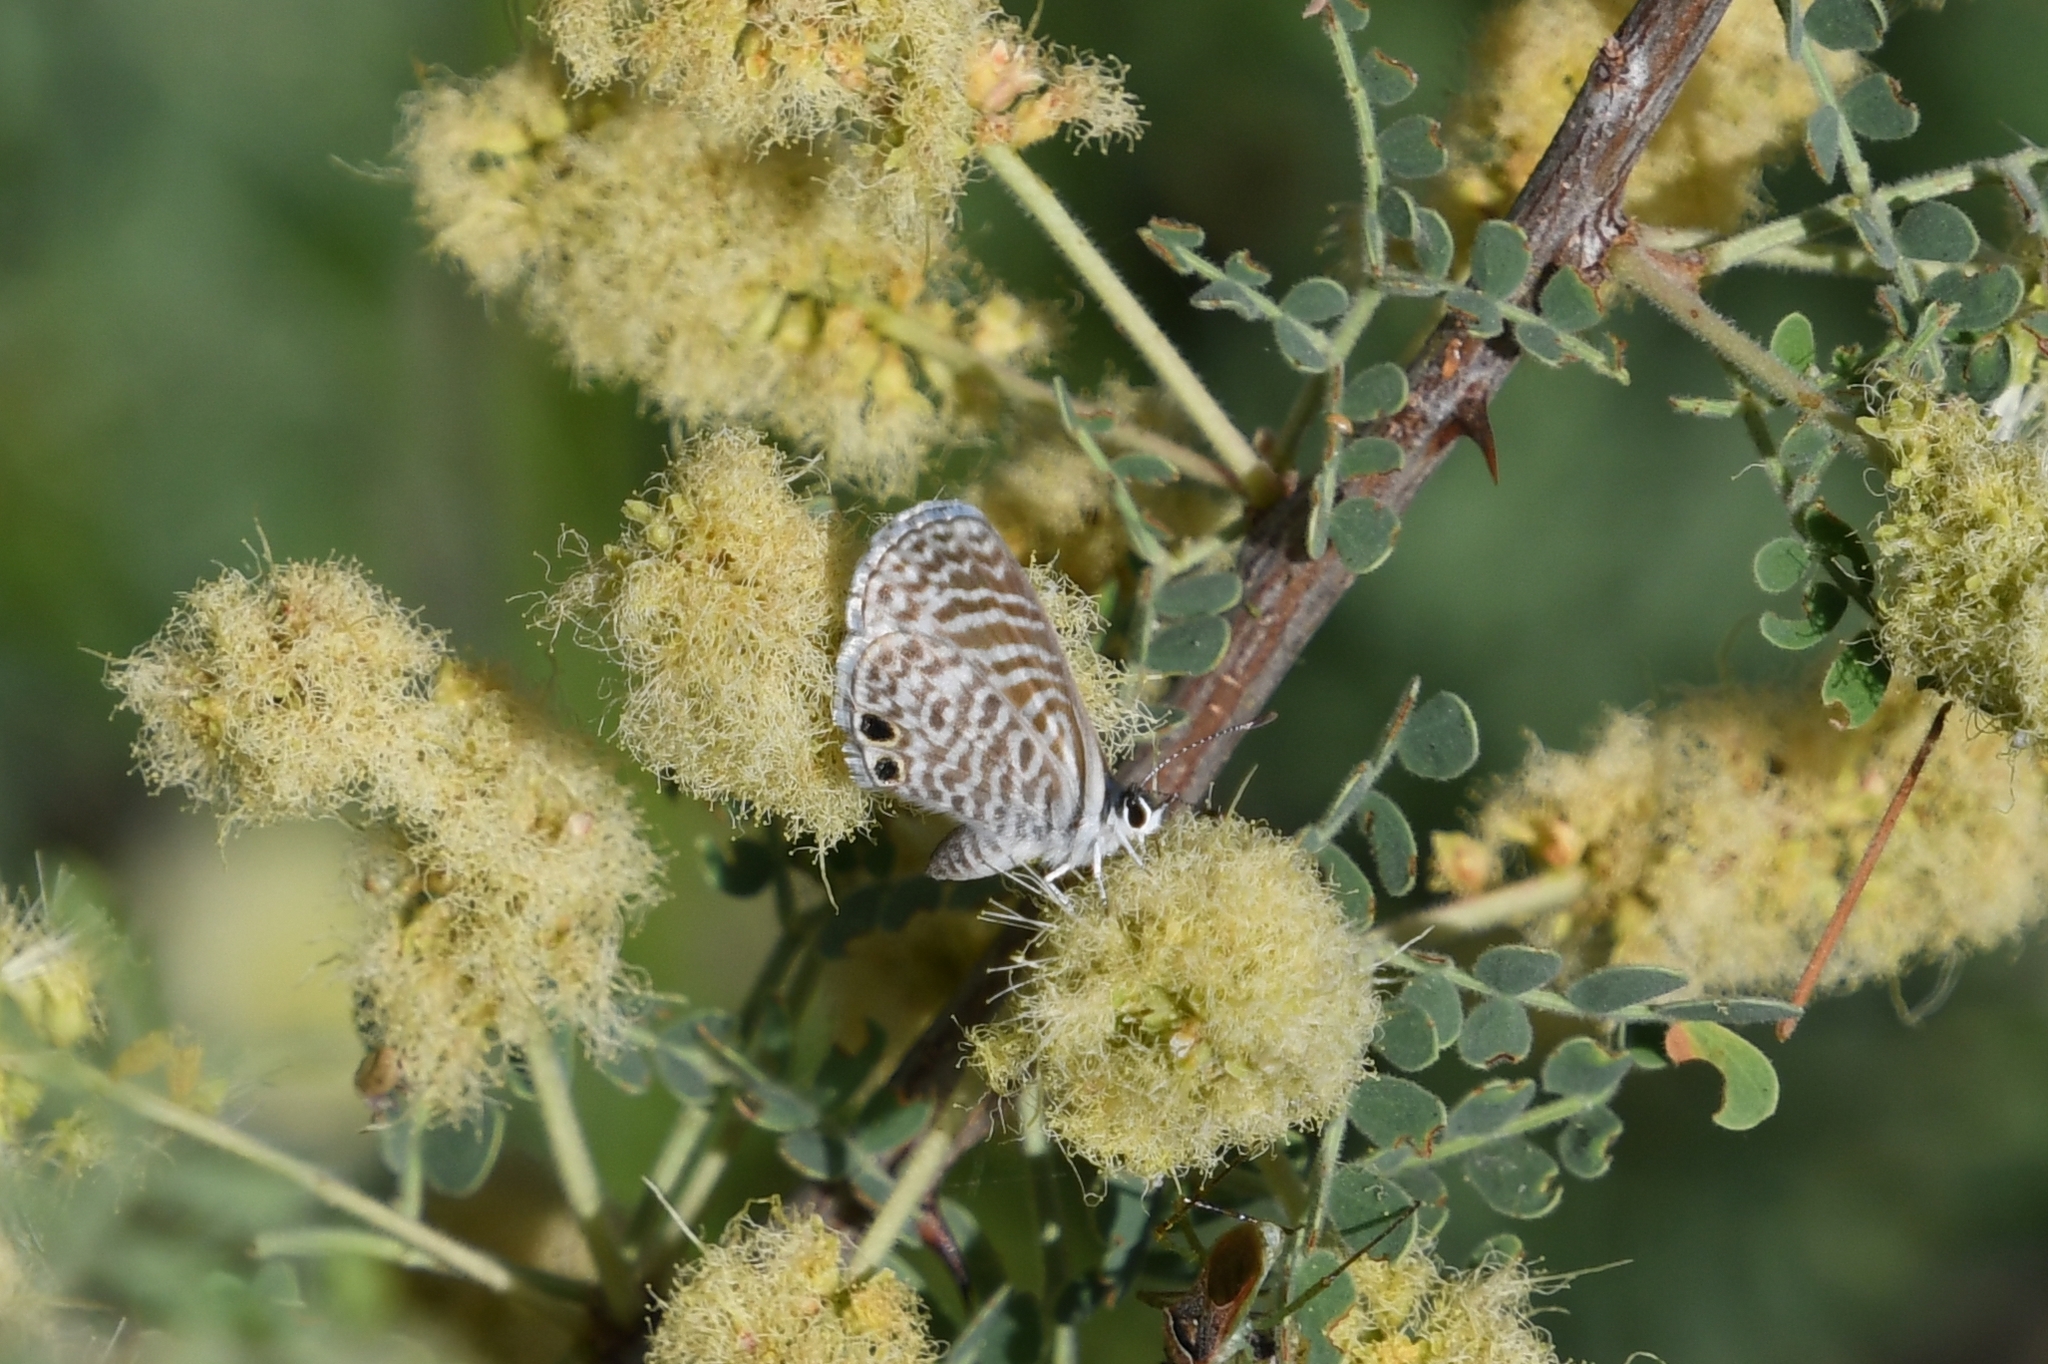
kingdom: Animalia
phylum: Arthropoda
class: Insecta
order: Lepidoptera
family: Lycaenidae
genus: Leptotes
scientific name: Leptotes marina
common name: Marine blue
